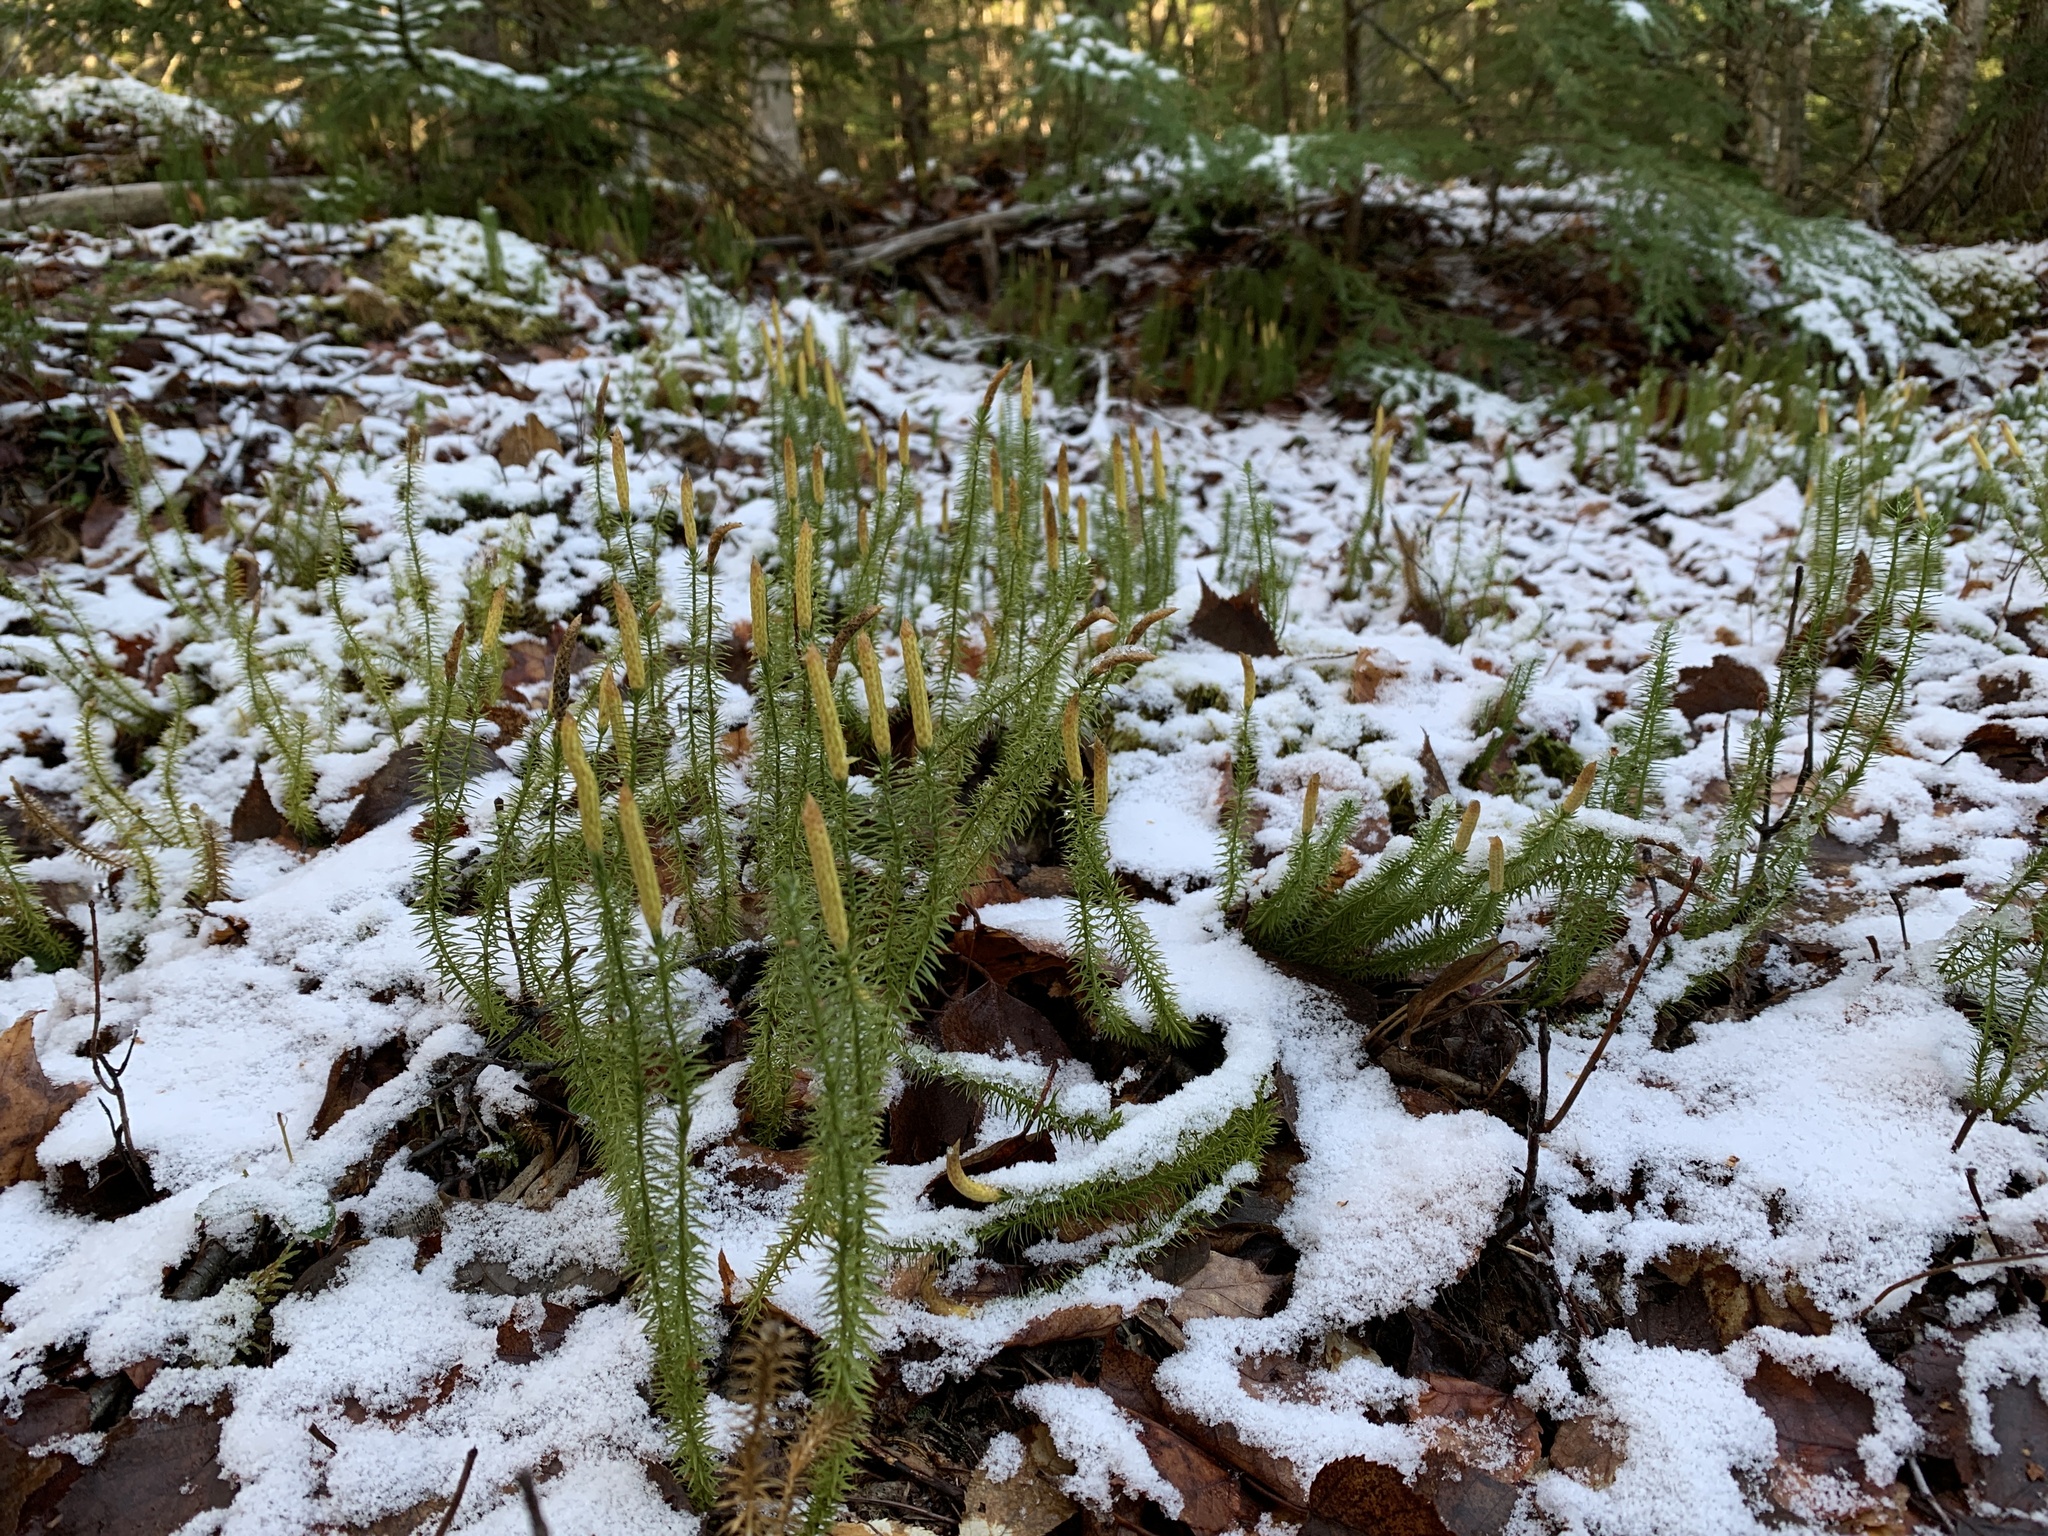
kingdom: Plantae
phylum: Tracheophyta
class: Lycopodiopsida
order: Lycopodiales
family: Lycopodiaceae
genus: Spinulum
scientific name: Spinulum annotinum
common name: Interrupted club-moss
